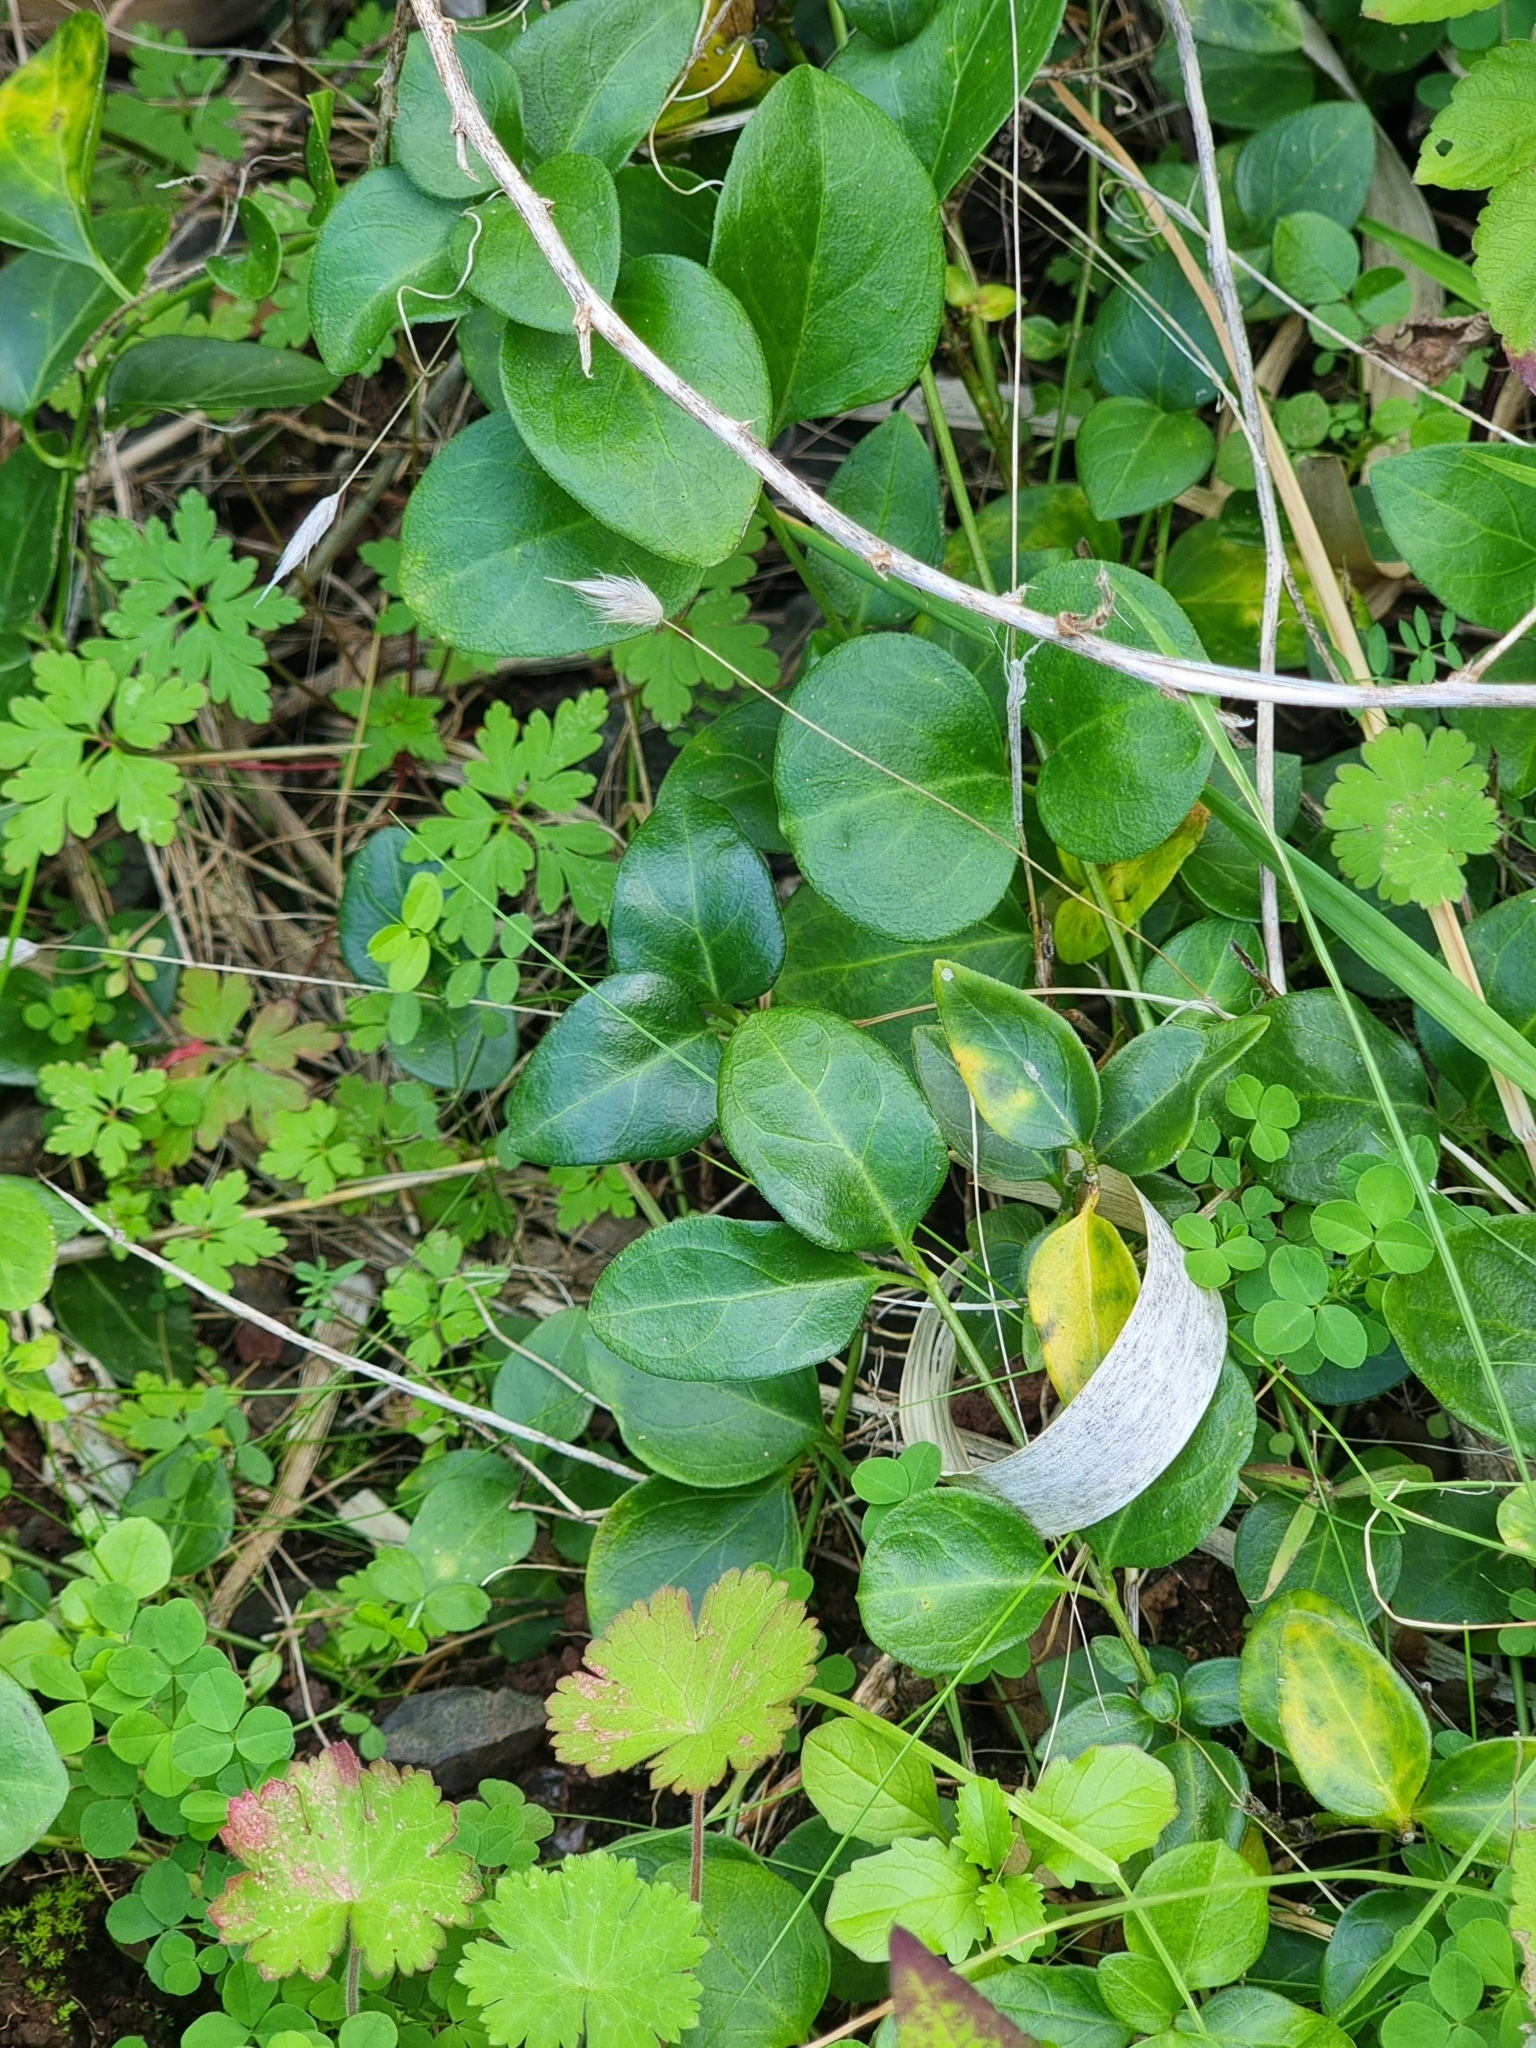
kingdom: Plantae
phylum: Tracheophyta
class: Magnoliopsida
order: Gentianales
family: Apocynaceae
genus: Vinca
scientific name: Vinca major
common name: Greater periwinkle
